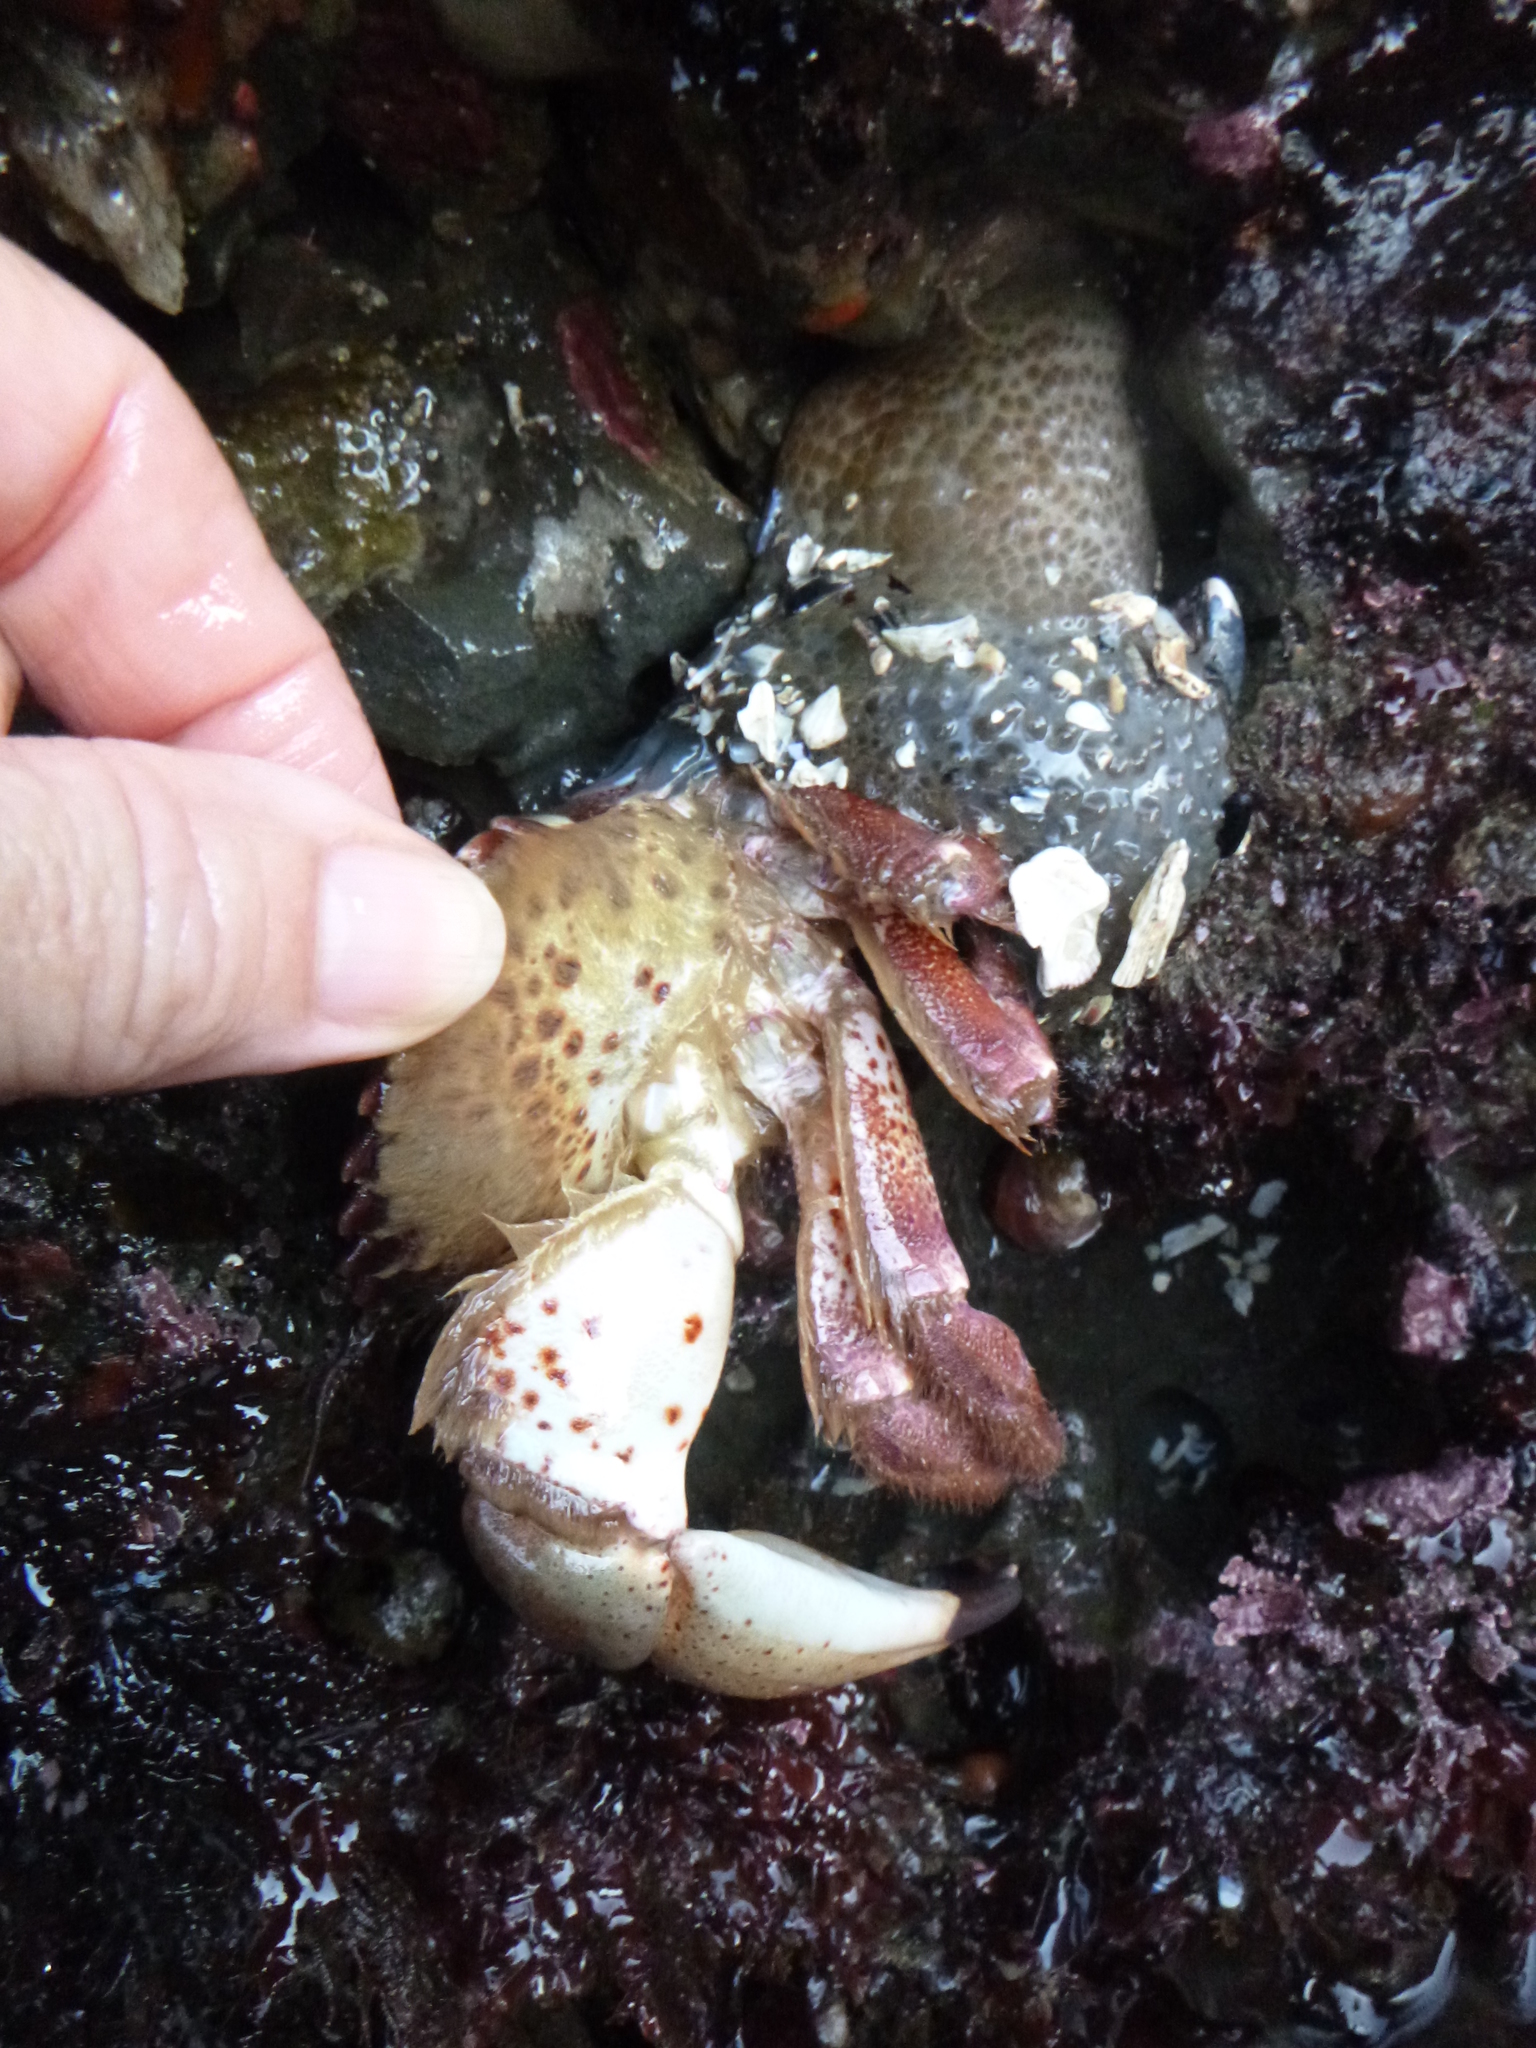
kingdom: Animalia
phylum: Arthropoda
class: Malacostraca
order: Decapoda
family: Cancridae
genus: Romaleon
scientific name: Romaleon antennarium
